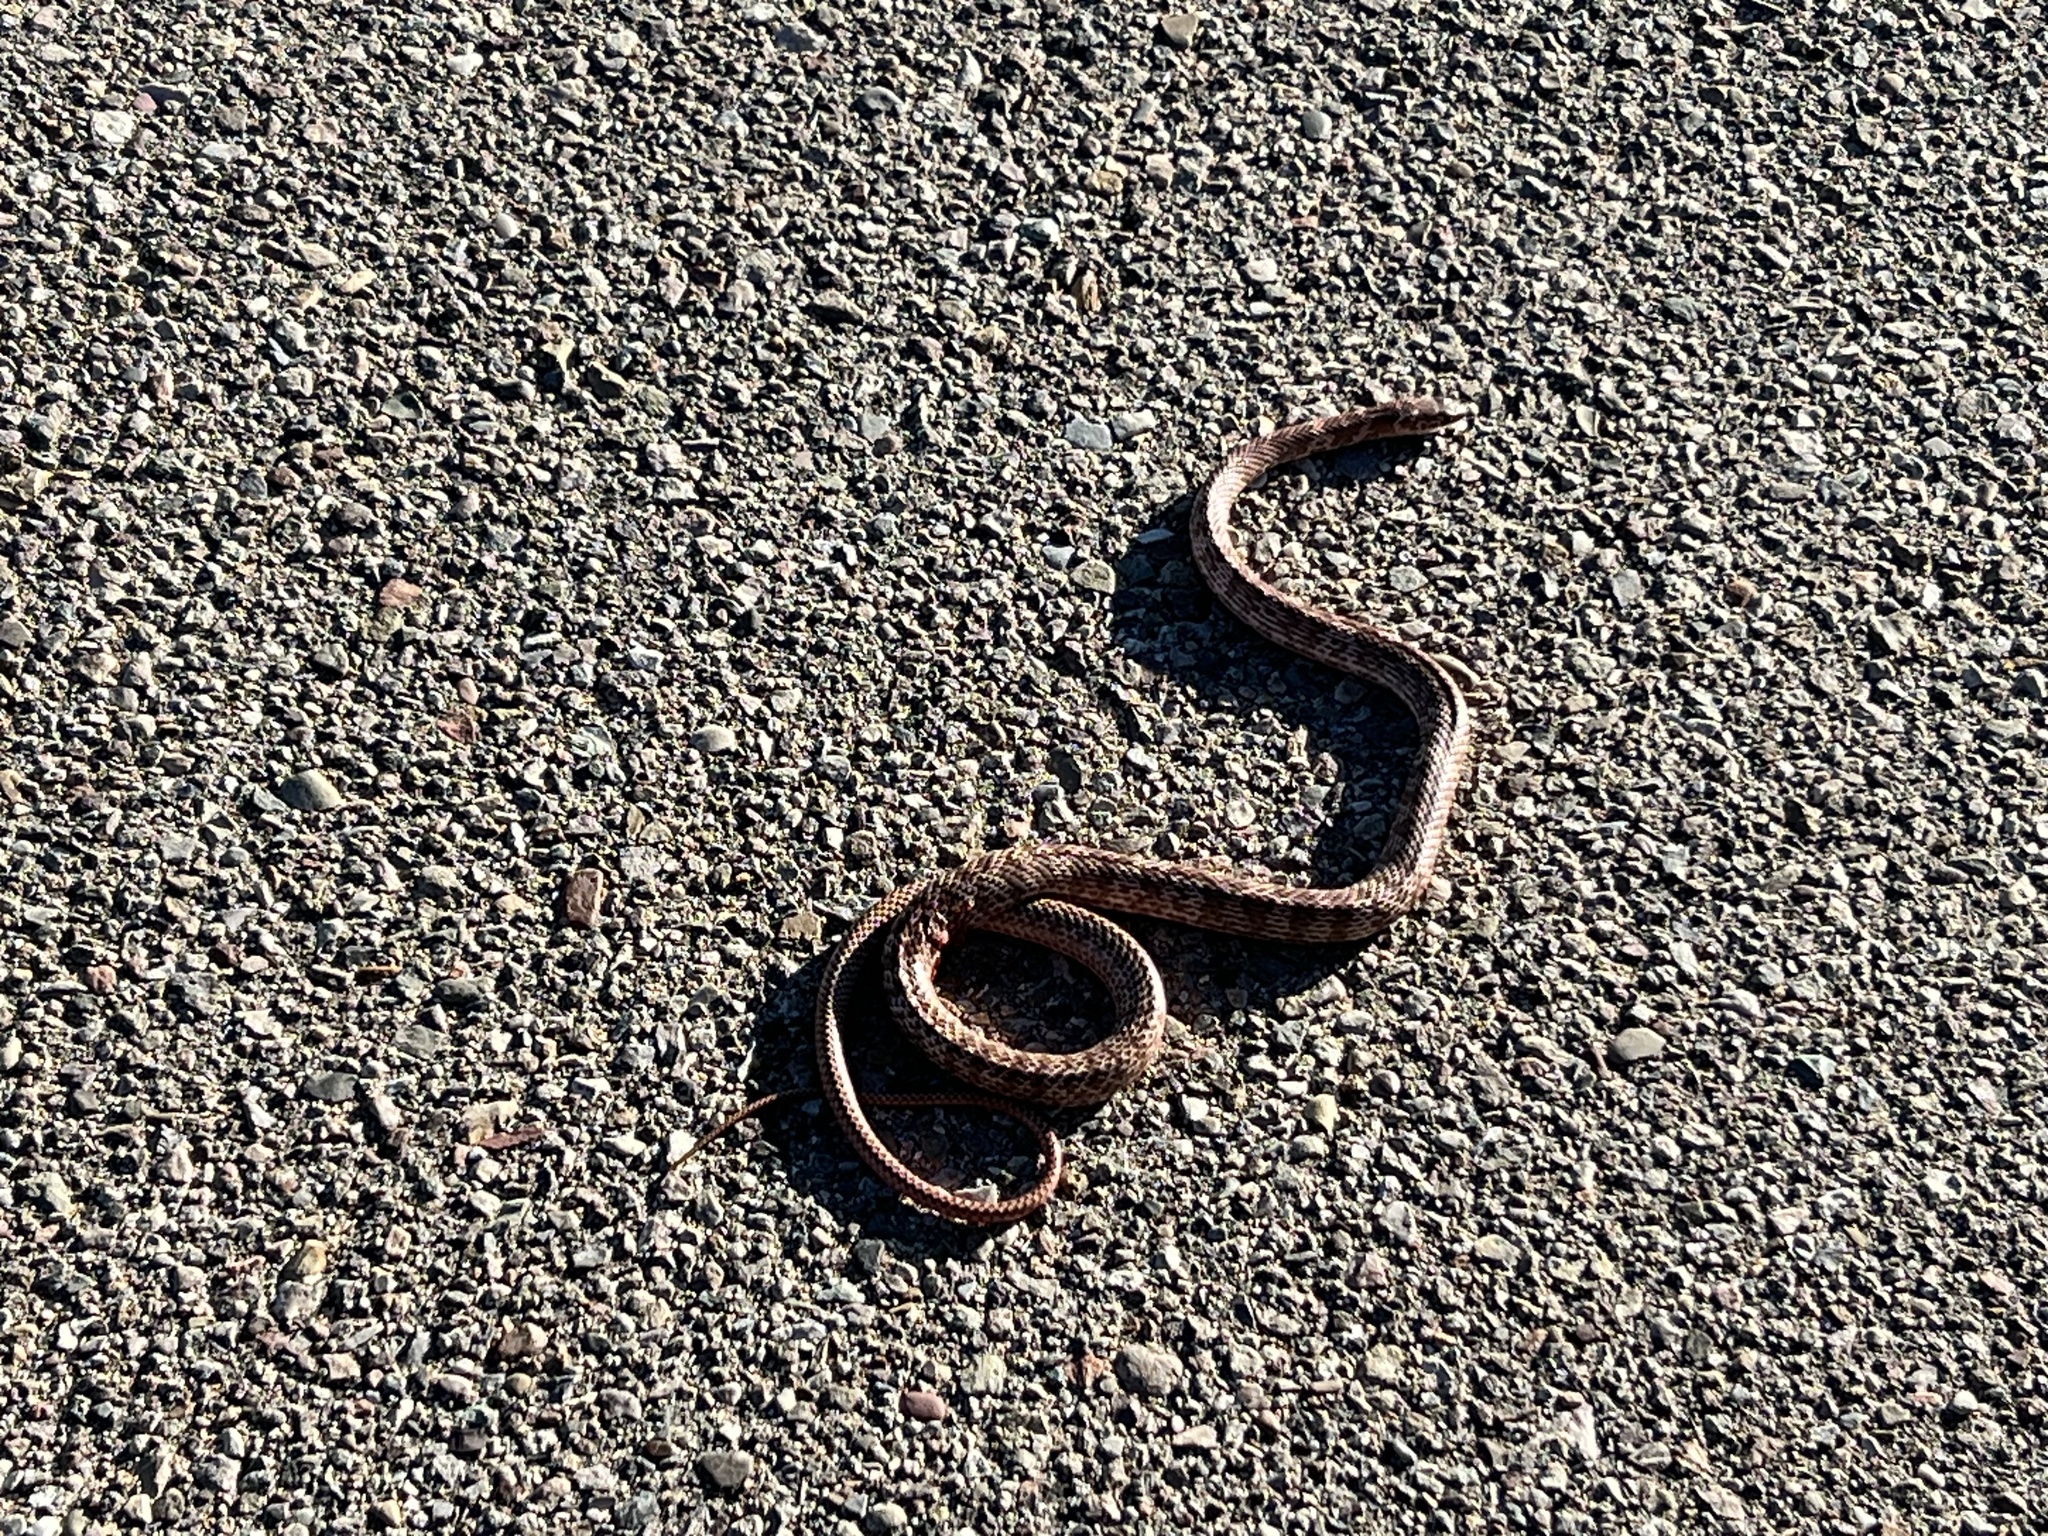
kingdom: Animalia
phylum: Chordata
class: Squamata
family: Colubridae
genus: Masticophis
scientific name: Masticophis flagellum
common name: Coachwhip
